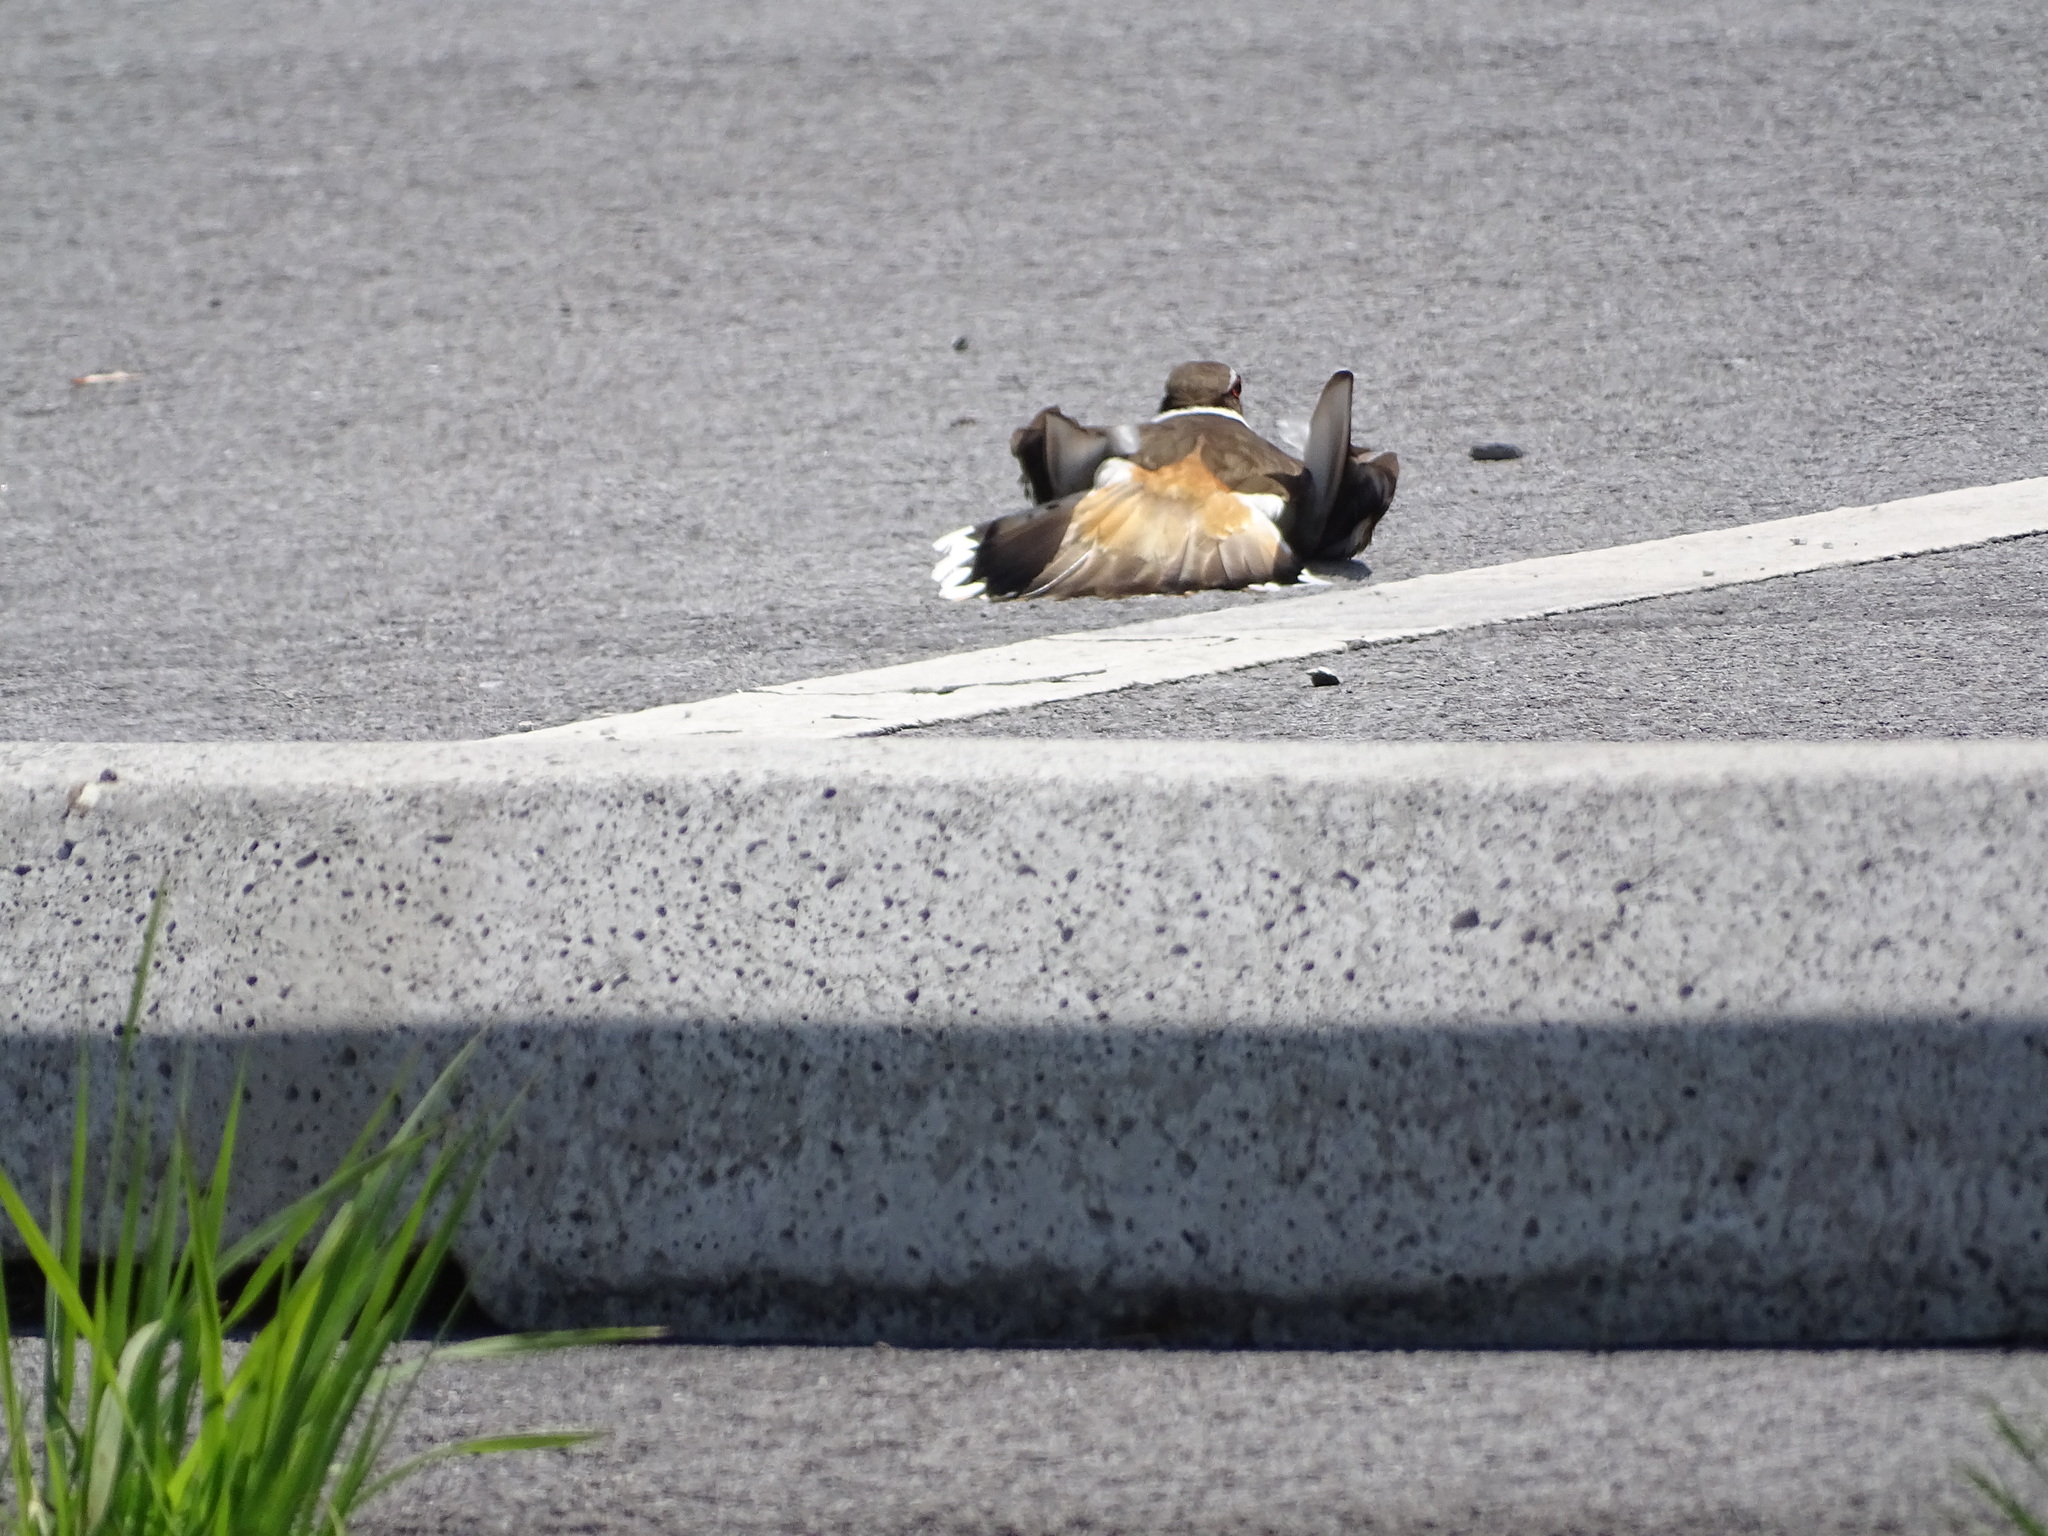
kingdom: Animalia
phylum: Chordata
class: Aves
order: Charadriiformes
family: Charadriidae
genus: Charadrius
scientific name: Charadrius vociferus
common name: Killdeer
